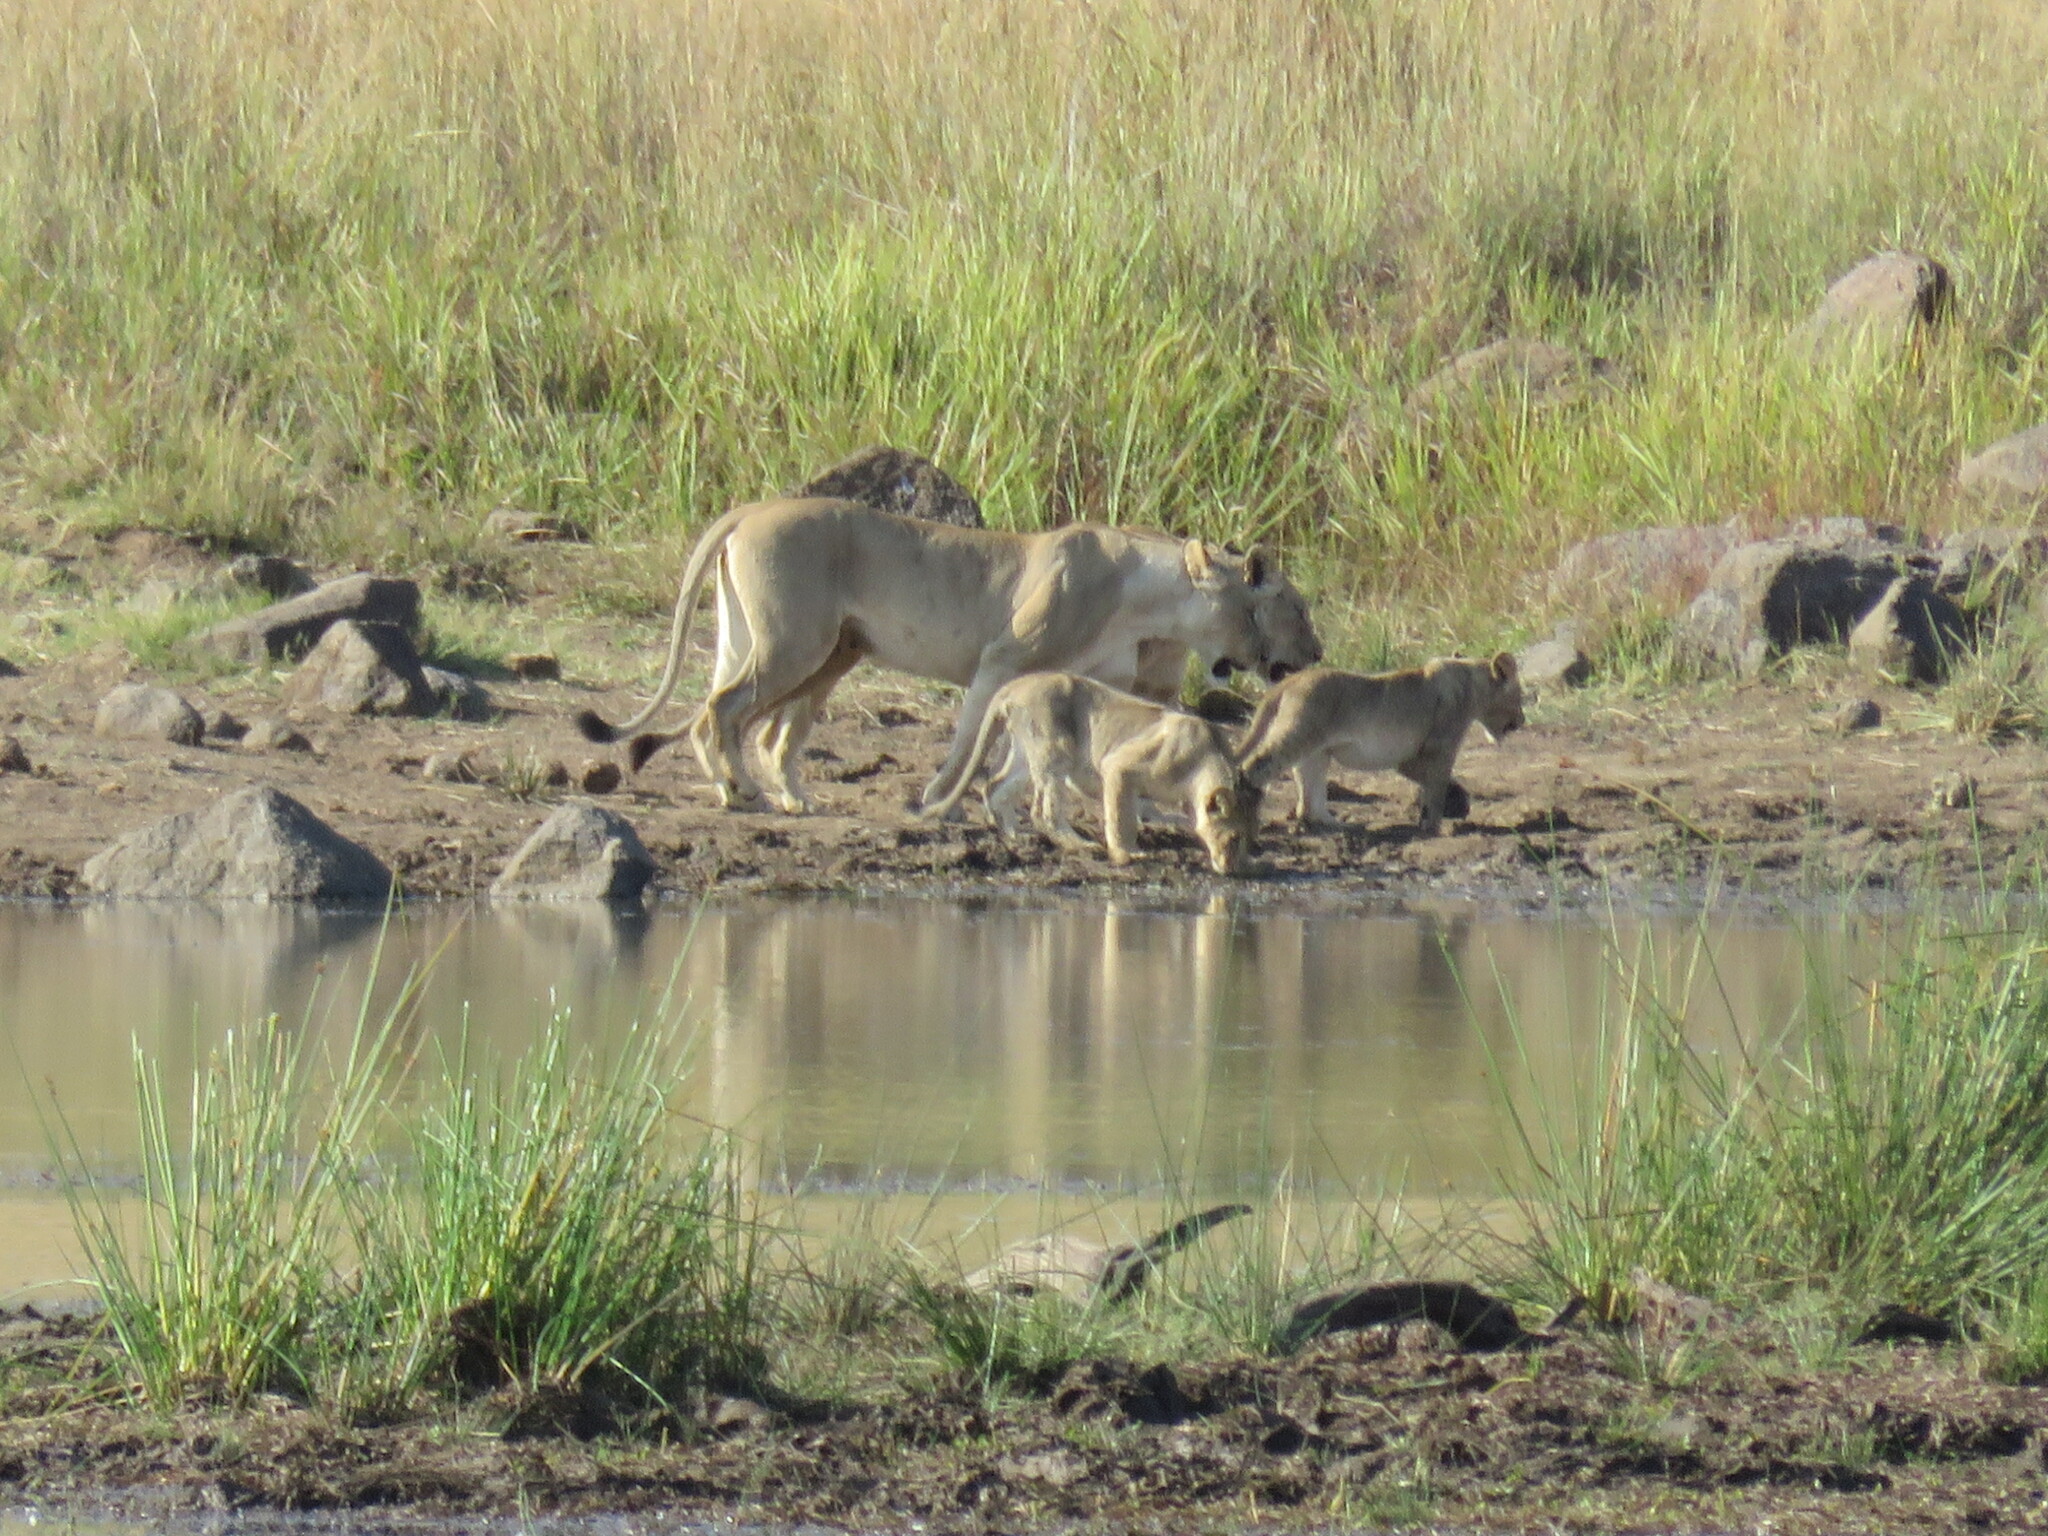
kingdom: Animalia
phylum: Chordata
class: Mammalia
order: Carnivora
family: Felidae
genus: Panthera
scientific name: Panthera leo
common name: Lion
